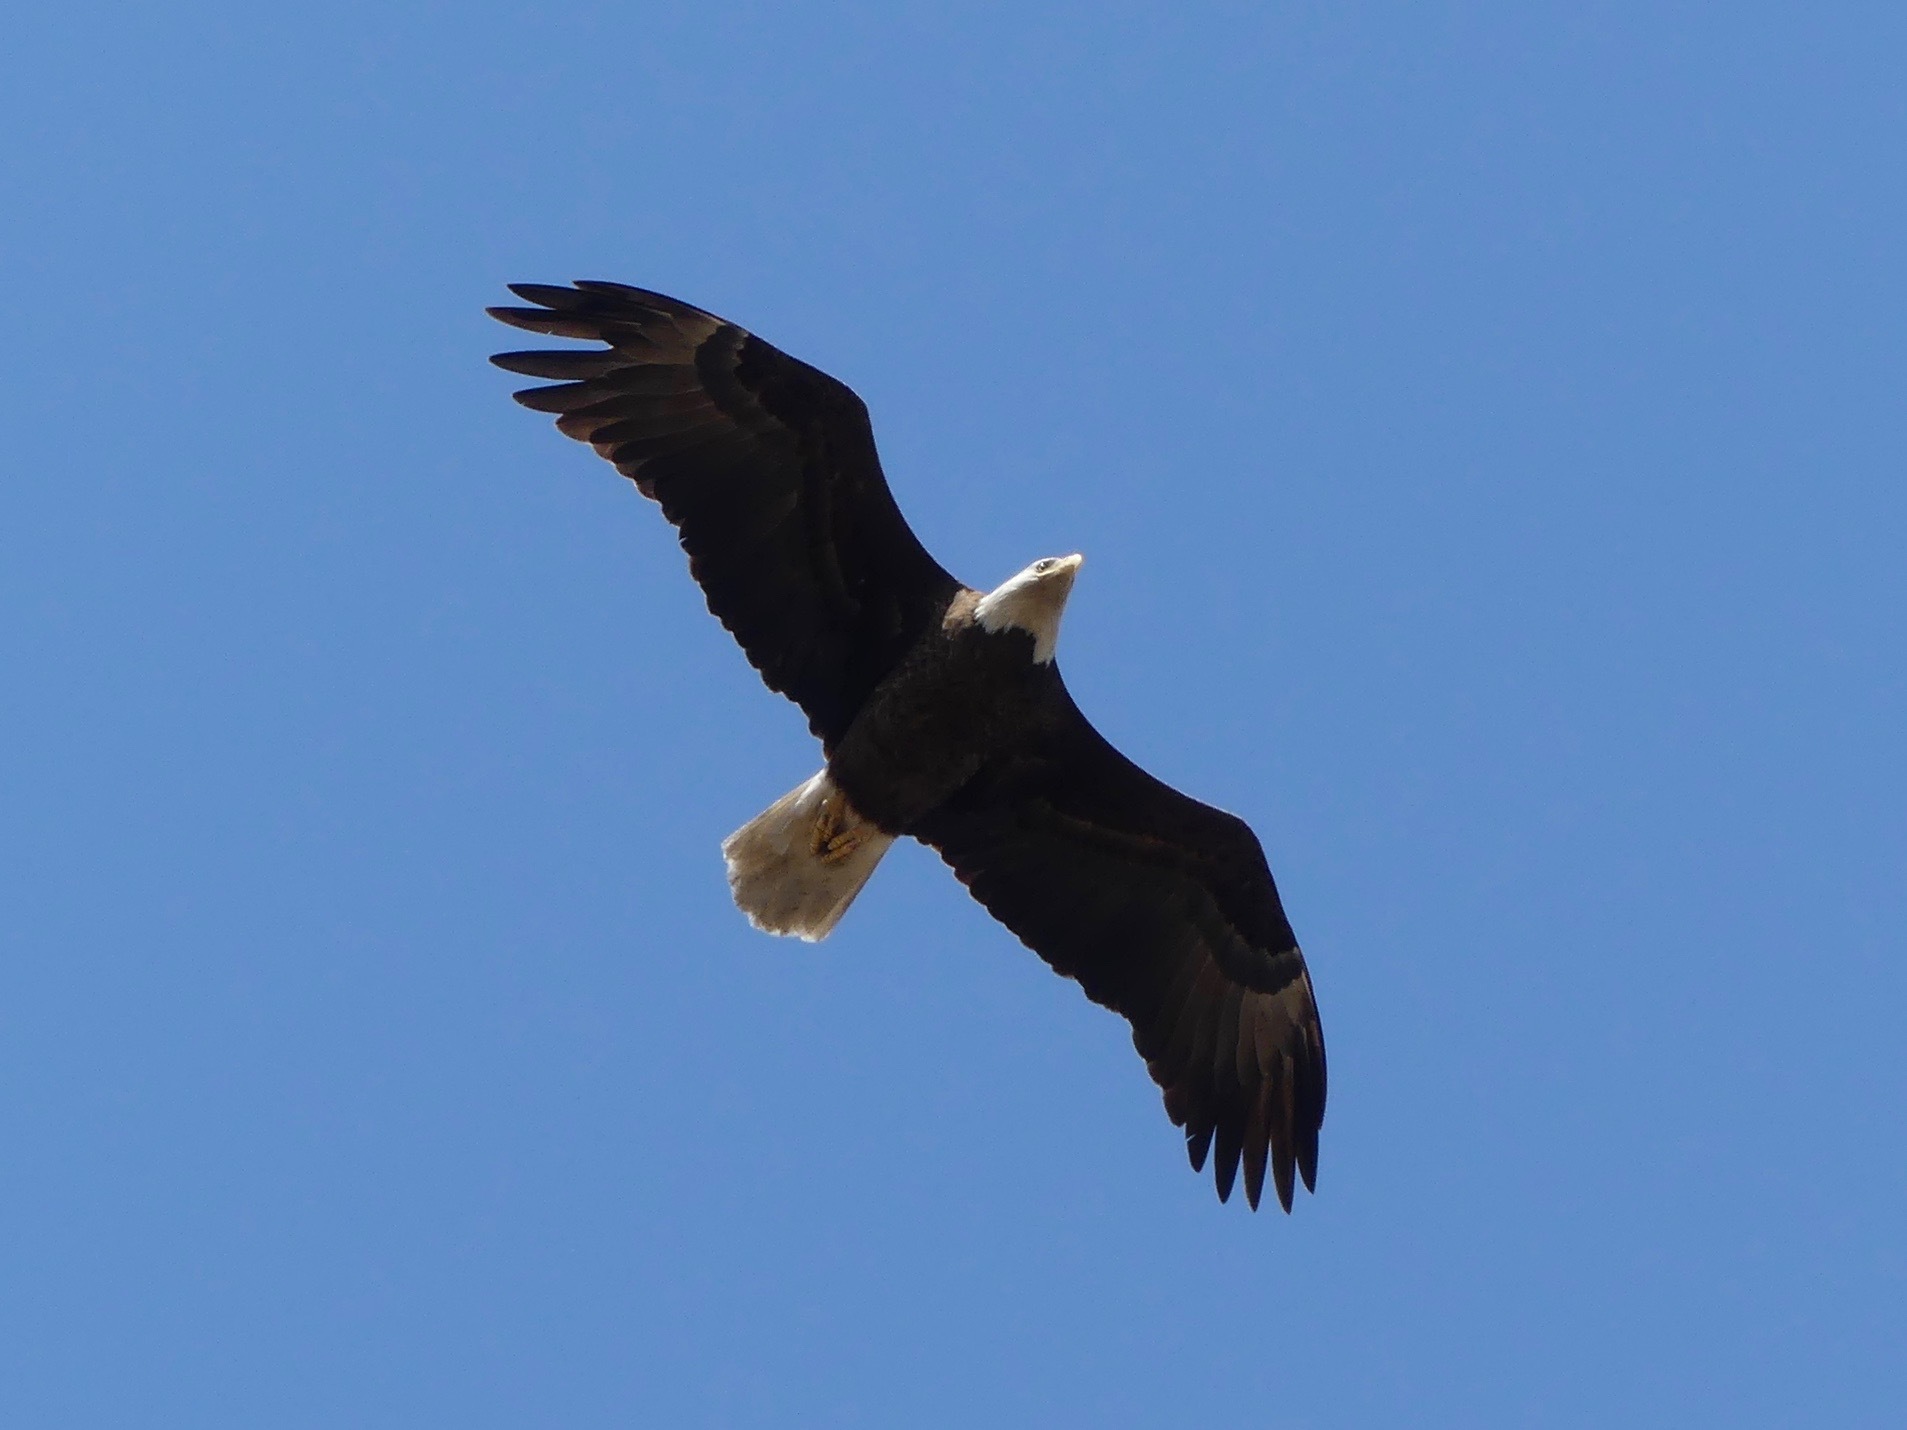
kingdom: Animalia
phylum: Chordata
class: Aves
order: Accipitriformes
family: Accipitridae
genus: Haliaeetus
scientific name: Haliaeetus leucocephalus
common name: Bald eagle
